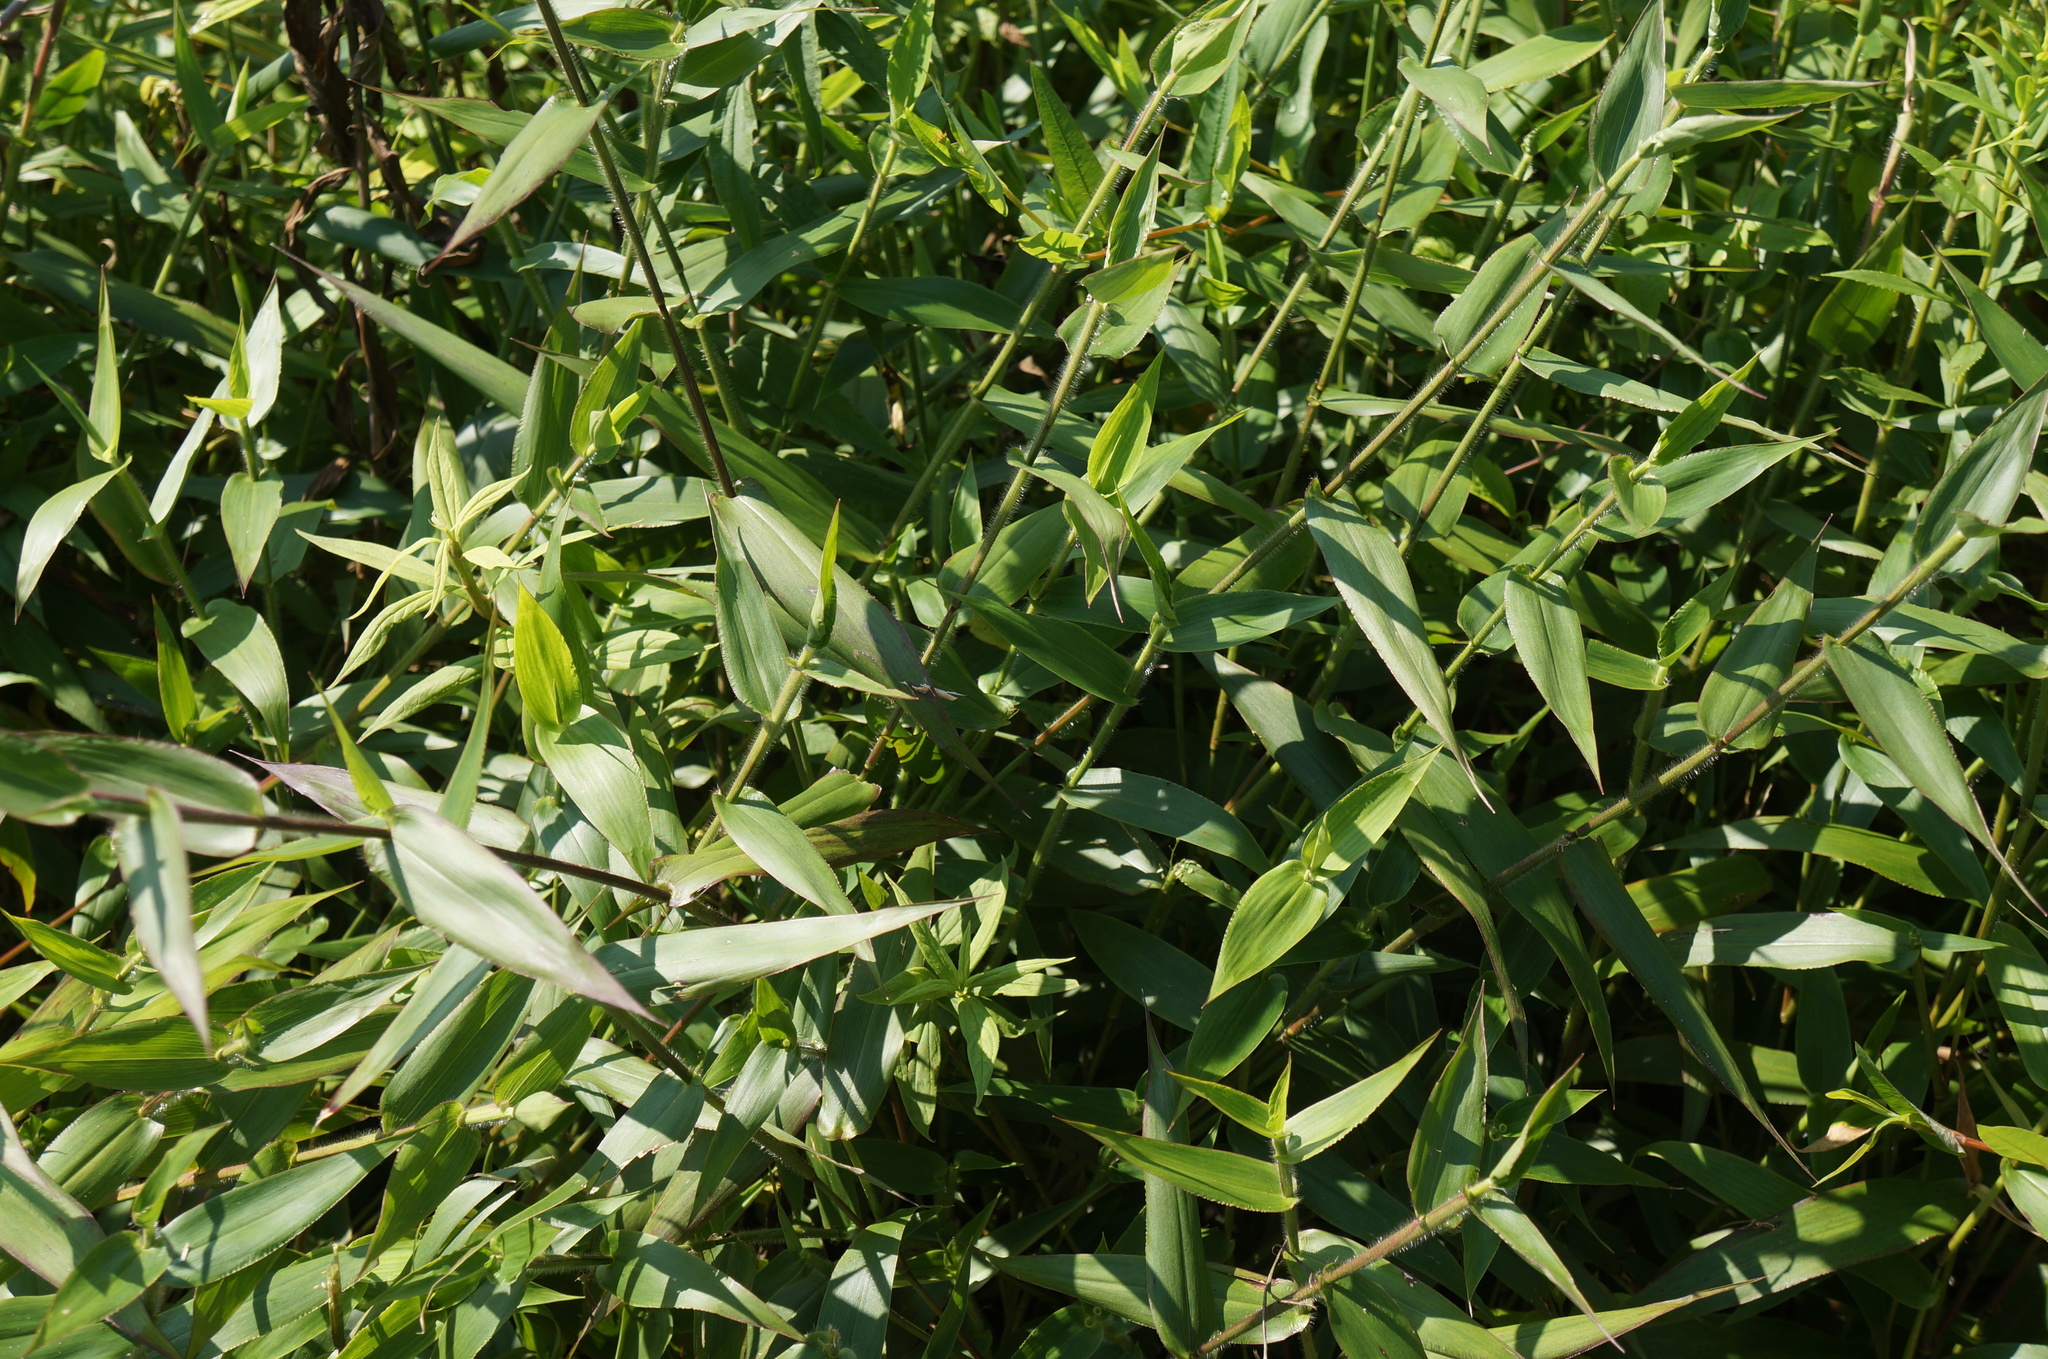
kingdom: Plantae
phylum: Tracheophyta
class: Liliopsida
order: Poales
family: Poaceae
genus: Dichanthelium
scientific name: Dichanthelium clandestinum
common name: Deer-tongue grass
